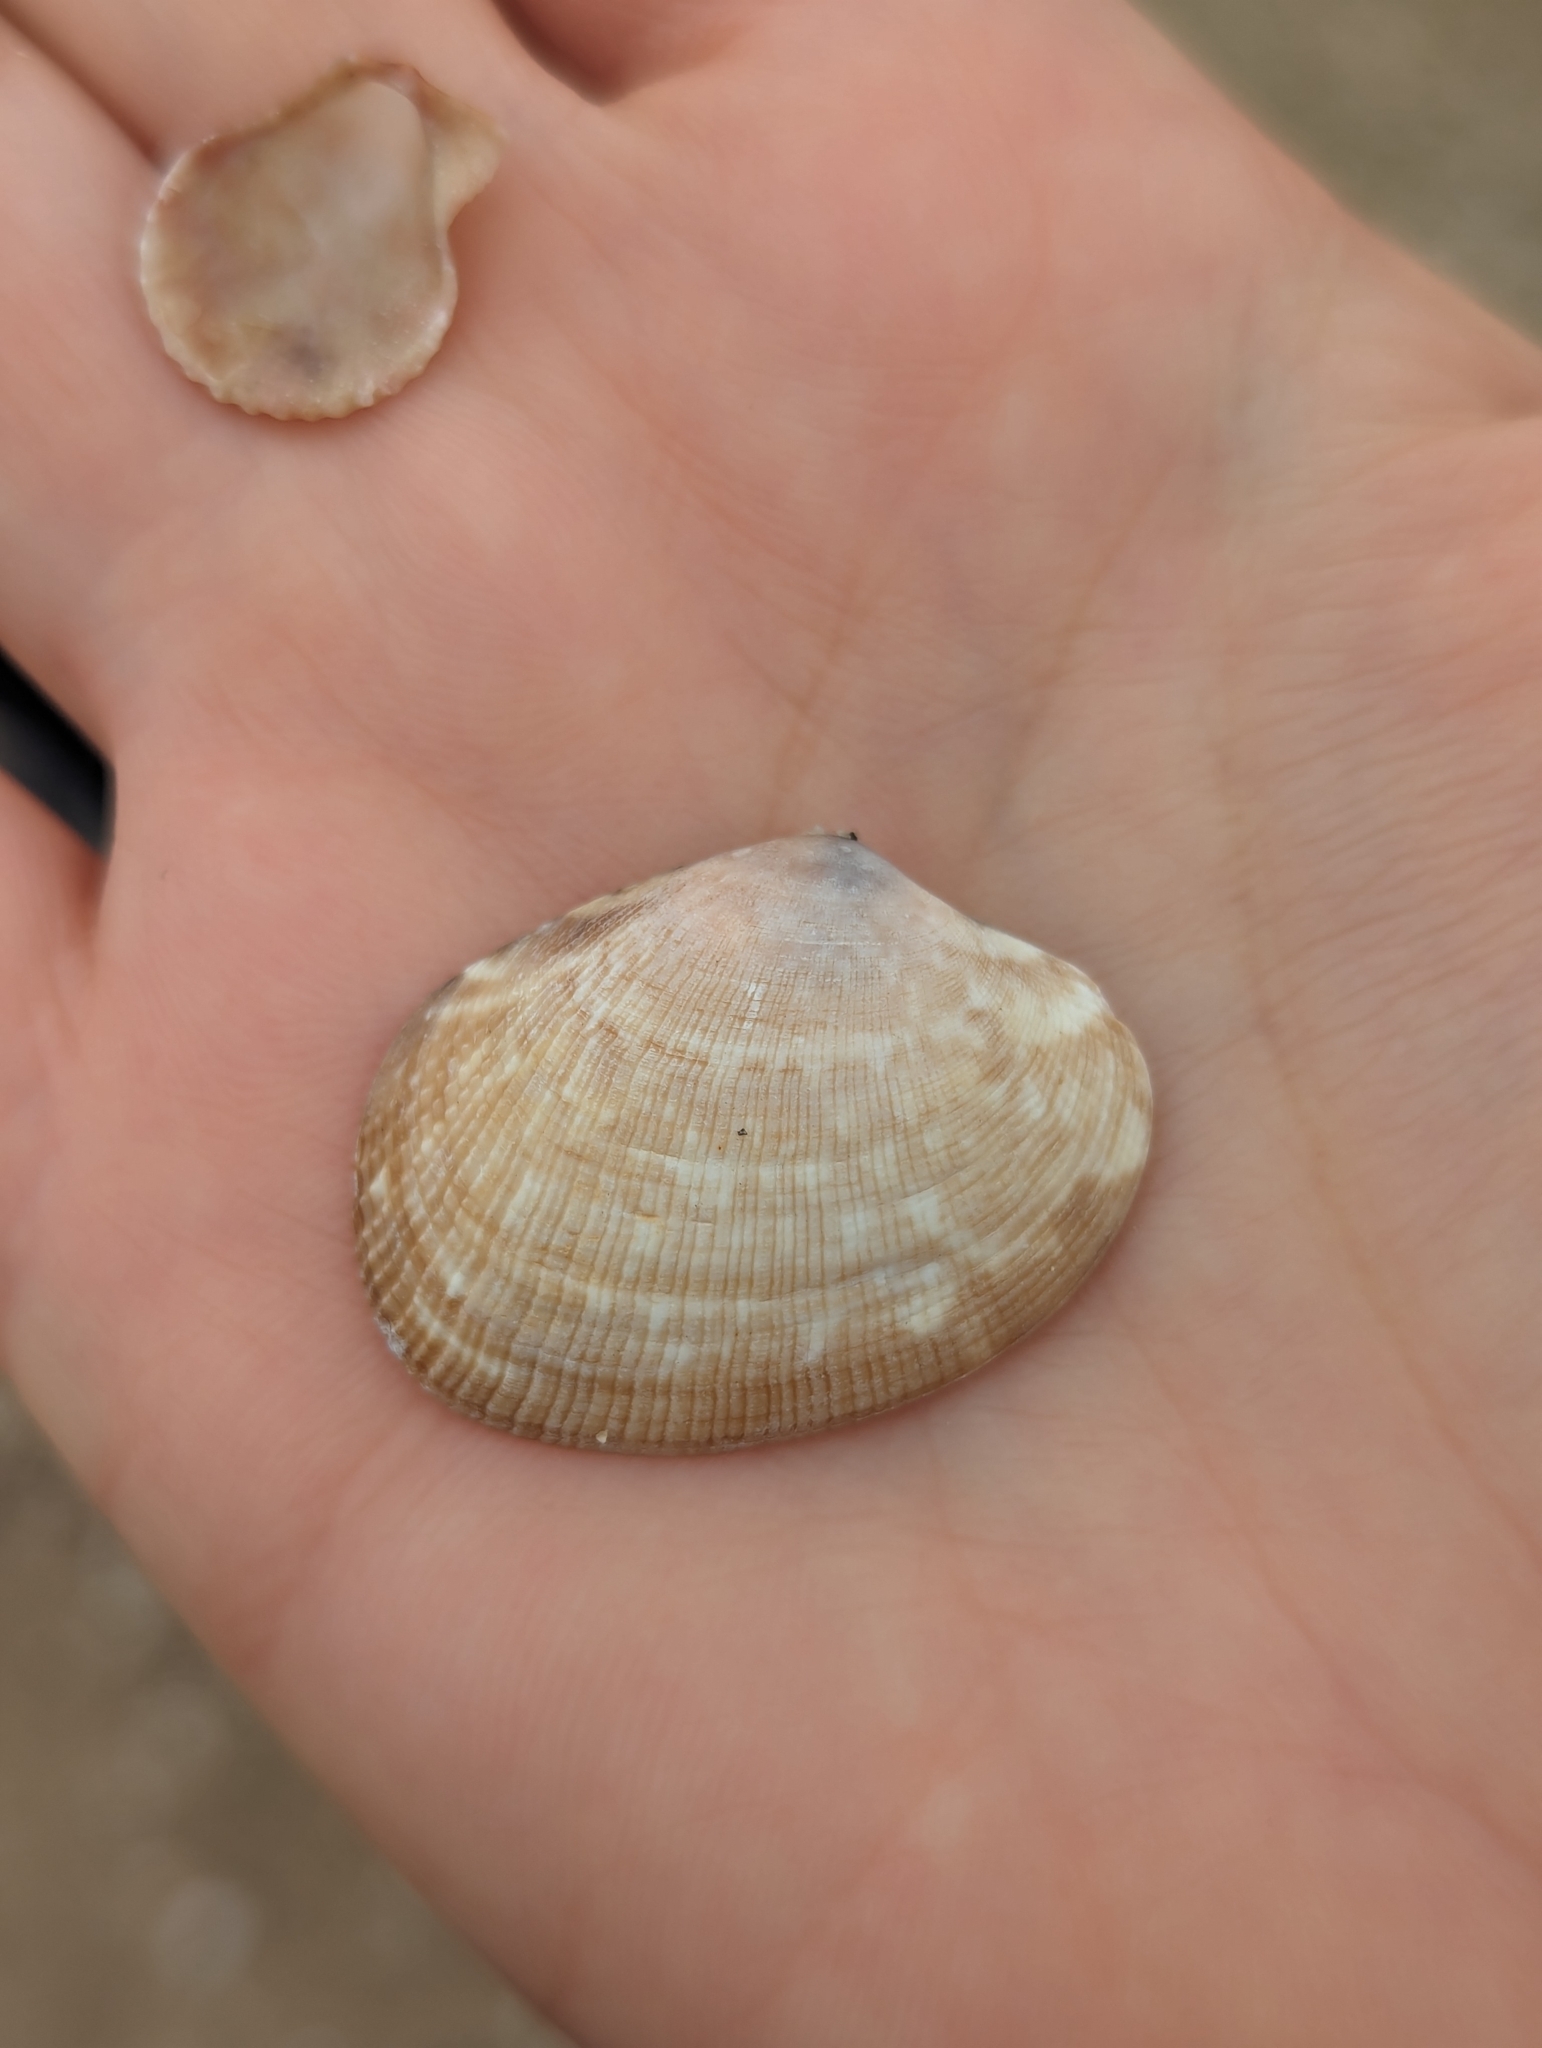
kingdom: Animalia
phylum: Mollusca
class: Bivalvia
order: Venerida
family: Veneridae
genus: Ruditapes
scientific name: Ruditapes philippinarum
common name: Manila clam
